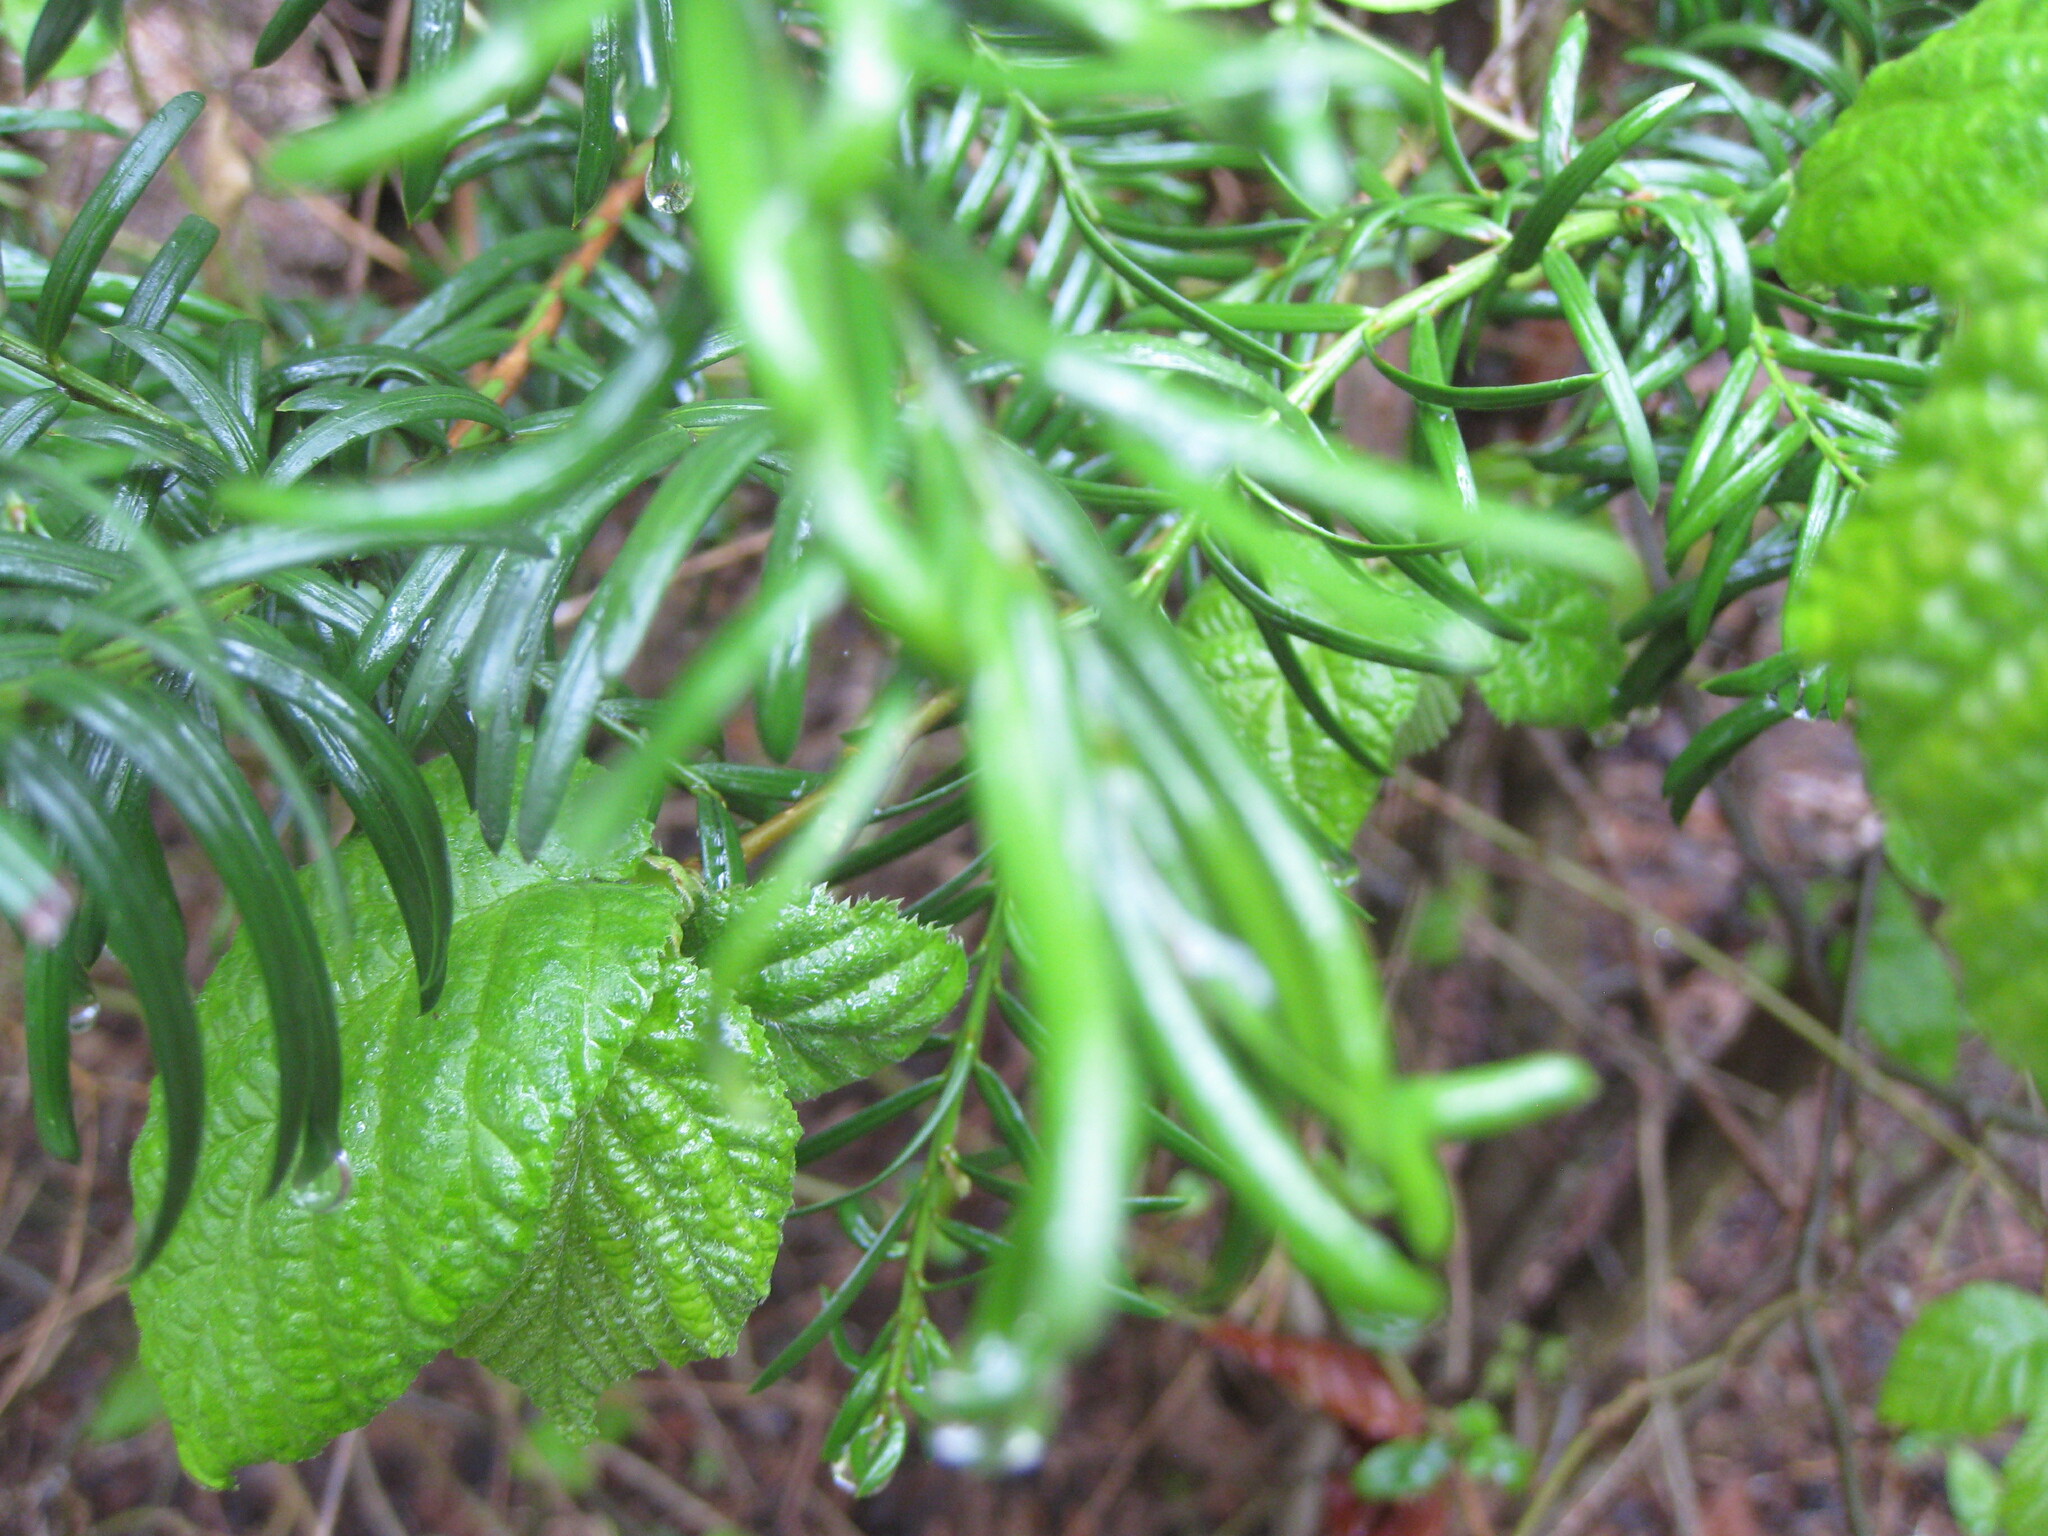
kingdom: Plantae
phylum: Tracheophyta
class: Pinopsida
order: Pinales
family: Taxaceae
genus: Taxus
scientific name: Taxus baccata
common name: Yew
